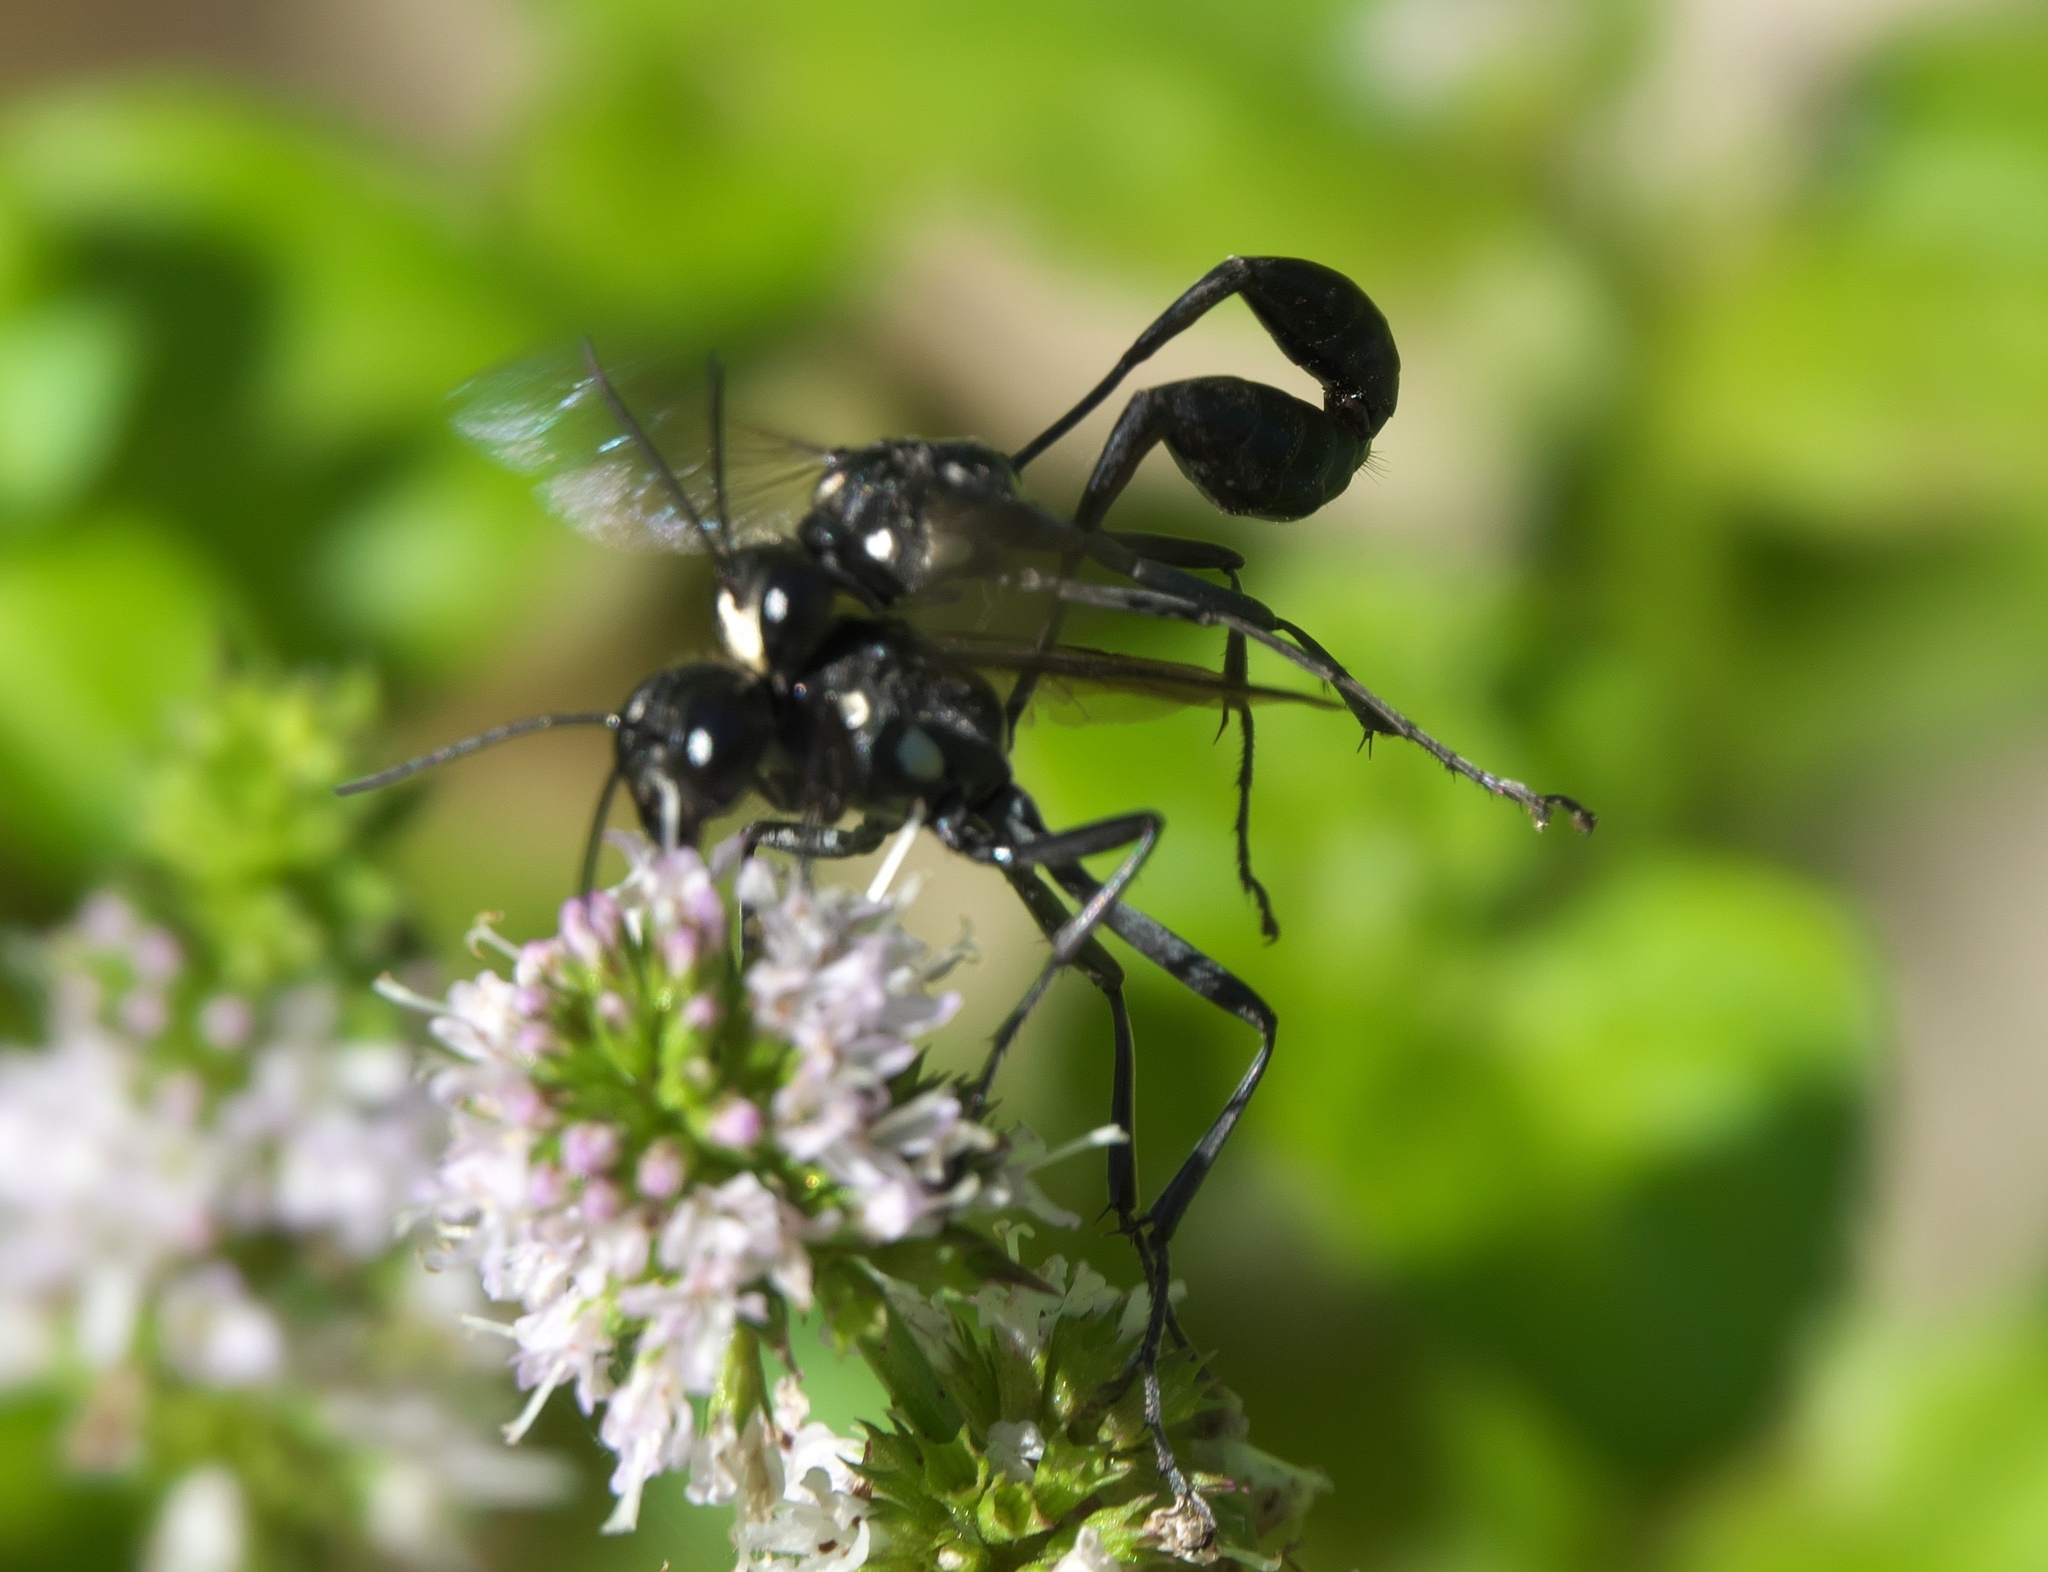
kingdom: Animalia
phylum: Arthropoda
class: Insecta
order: Hymenoptera
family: Sphecidae
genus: Eremnophila
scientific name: Eremnophila aureonotata
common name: Gold-marked thread-waisted wasp
